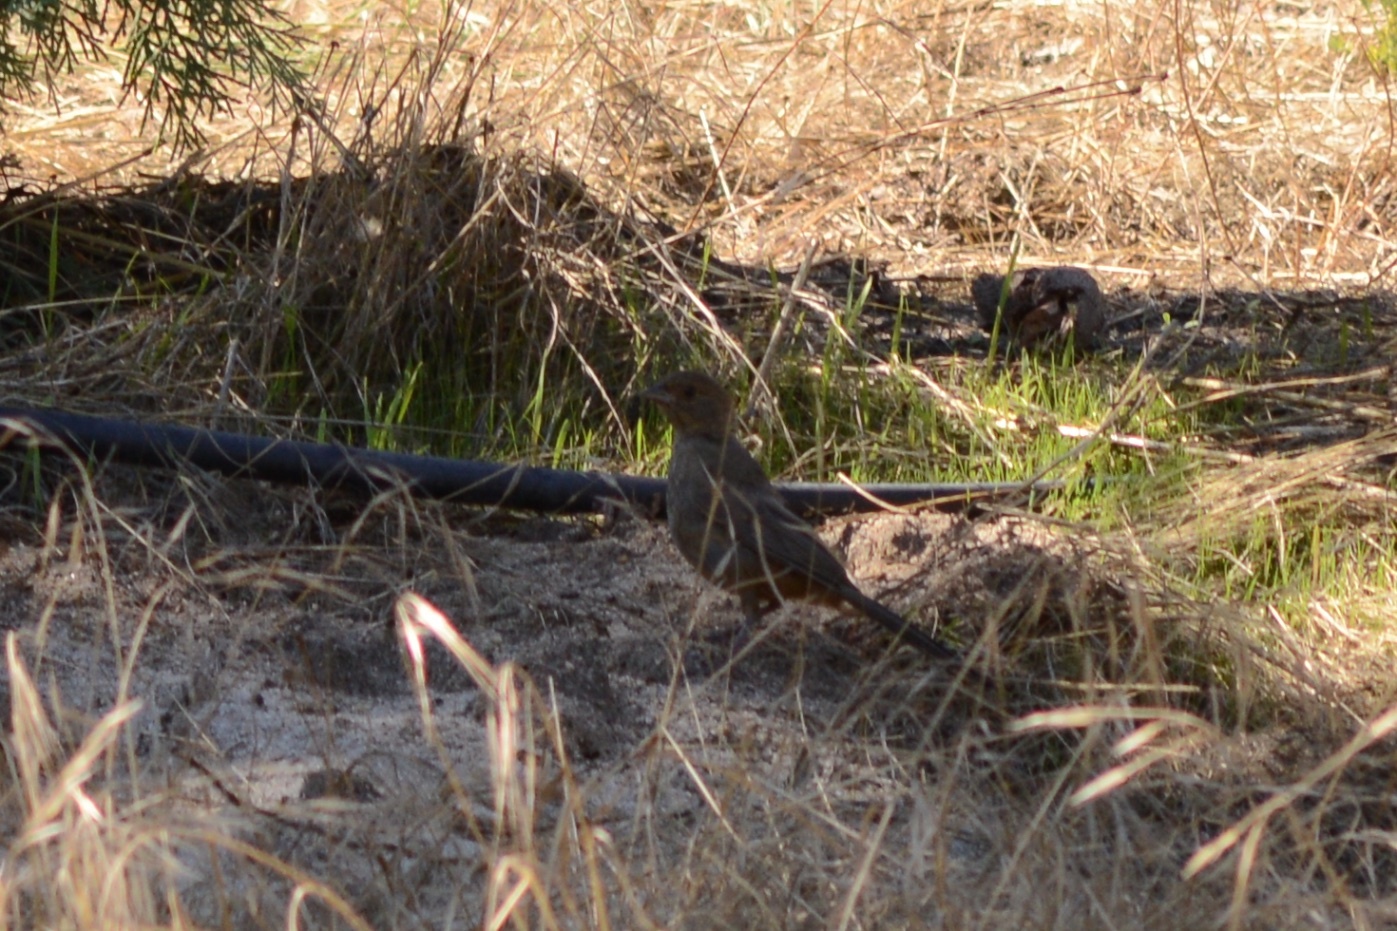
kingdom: Animalia
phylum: Chordata
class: Aves
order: Passeriformes
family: Passerellidae
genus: Melozone
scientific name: Melozone crissalis
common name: California towhee
